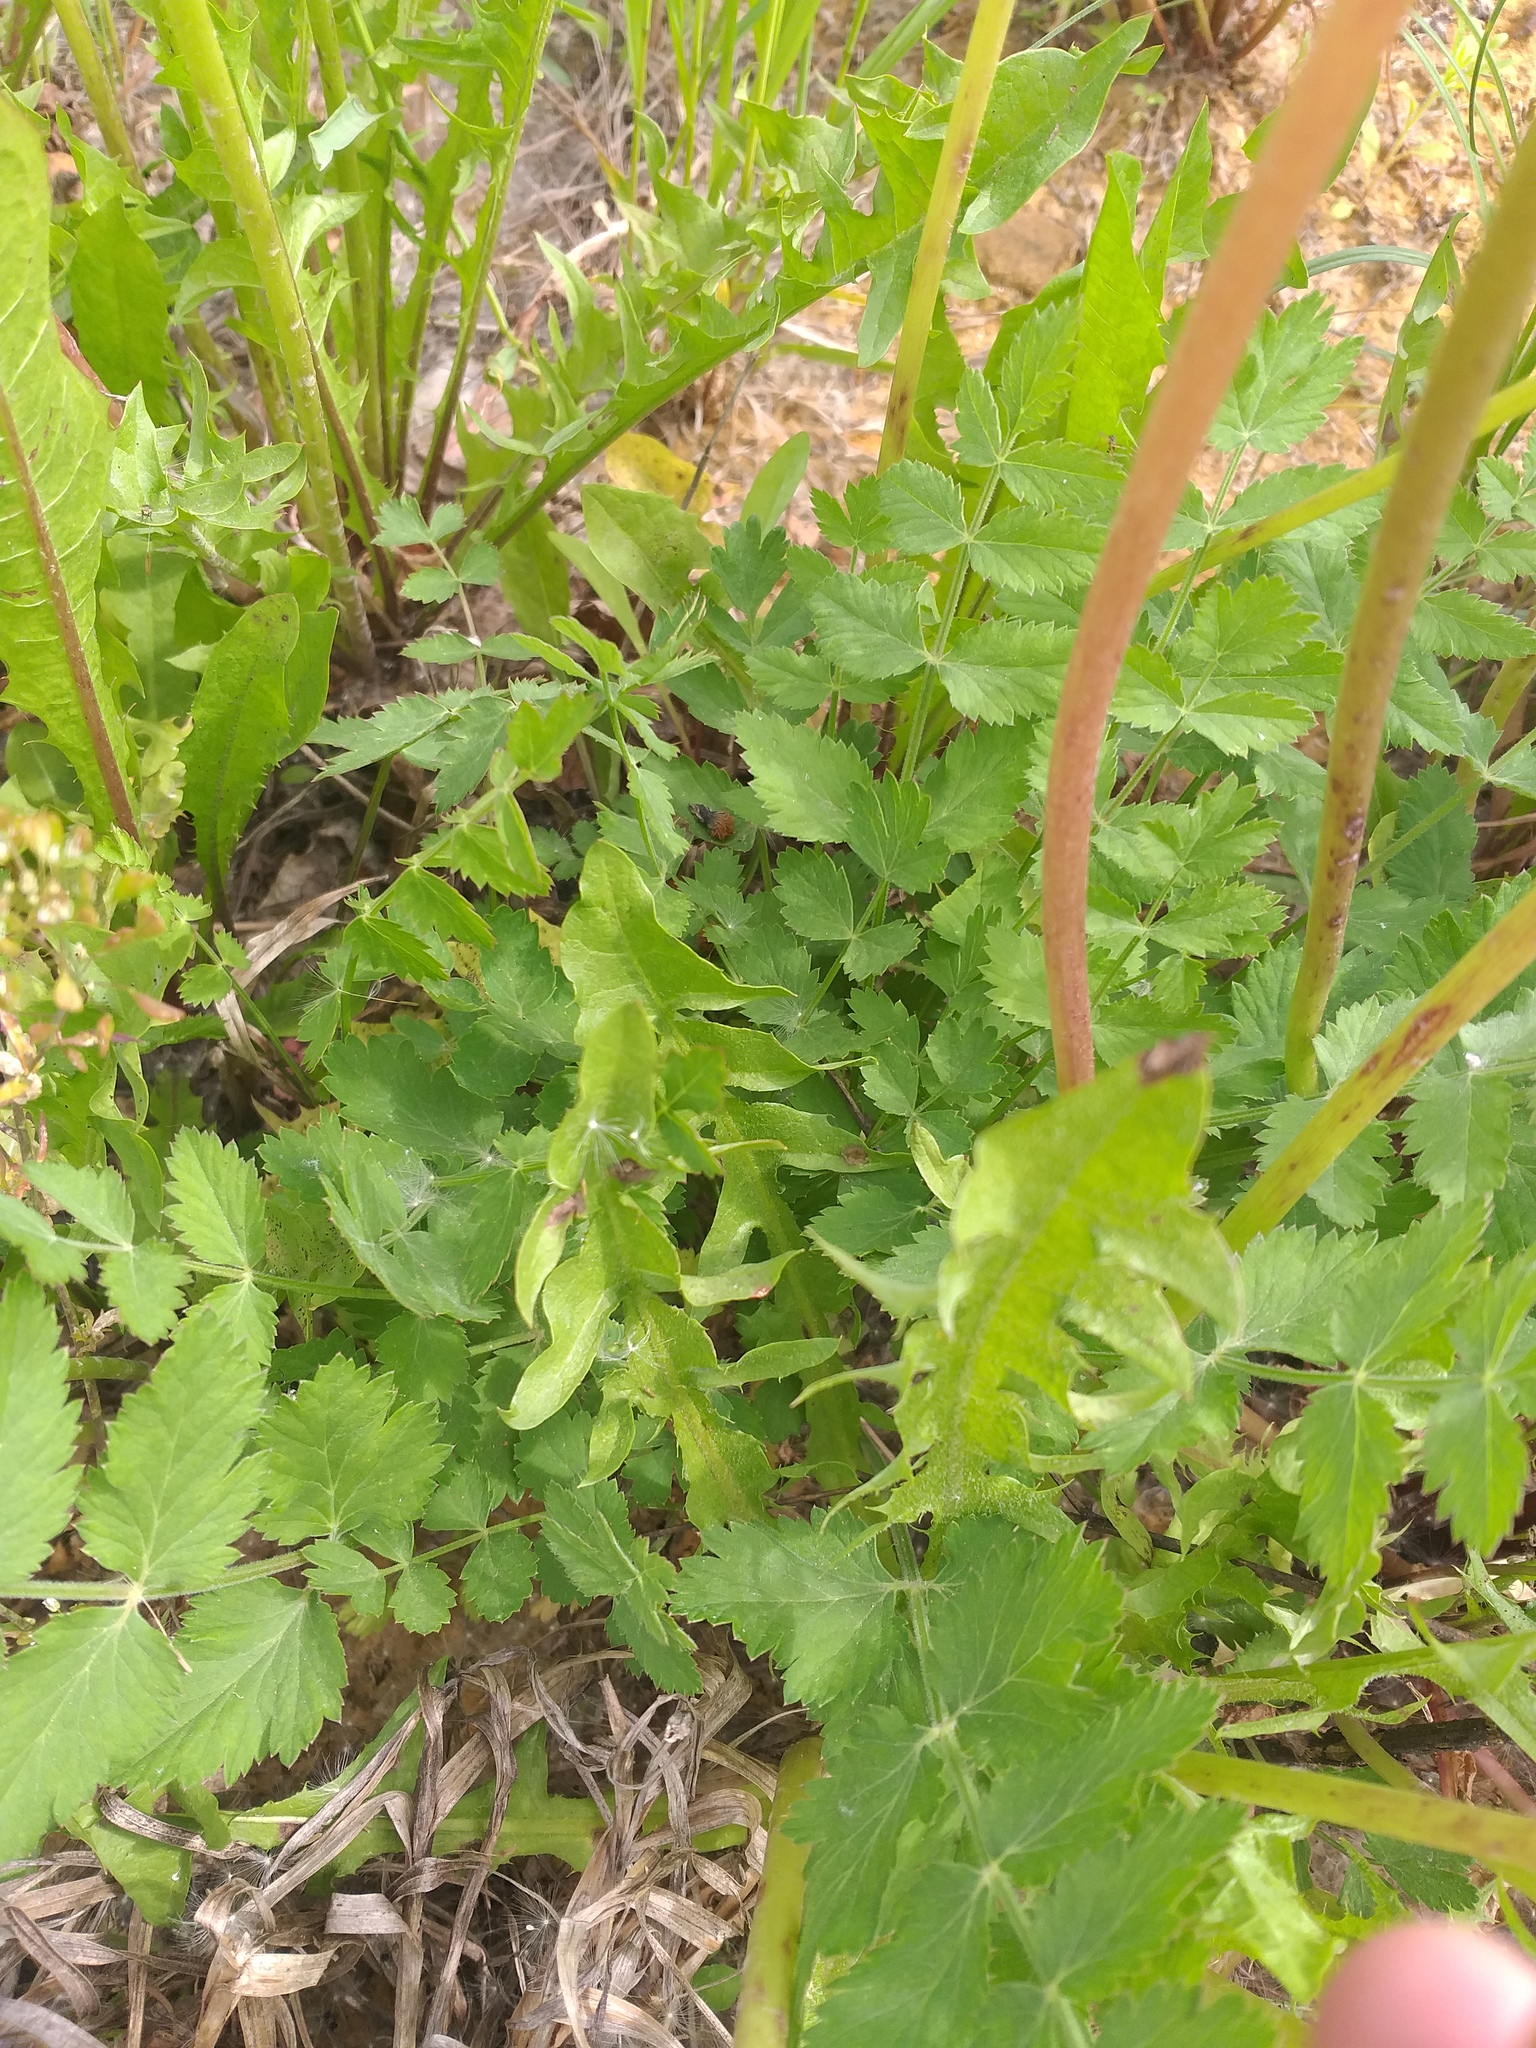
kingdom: Plantae
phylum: Tracheophyta
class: Magnoliopsida
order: Apiales
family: Apiaceae
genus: Pimpinella
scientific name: Pimpinella saxifraga
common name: Burnet-saxifrage
